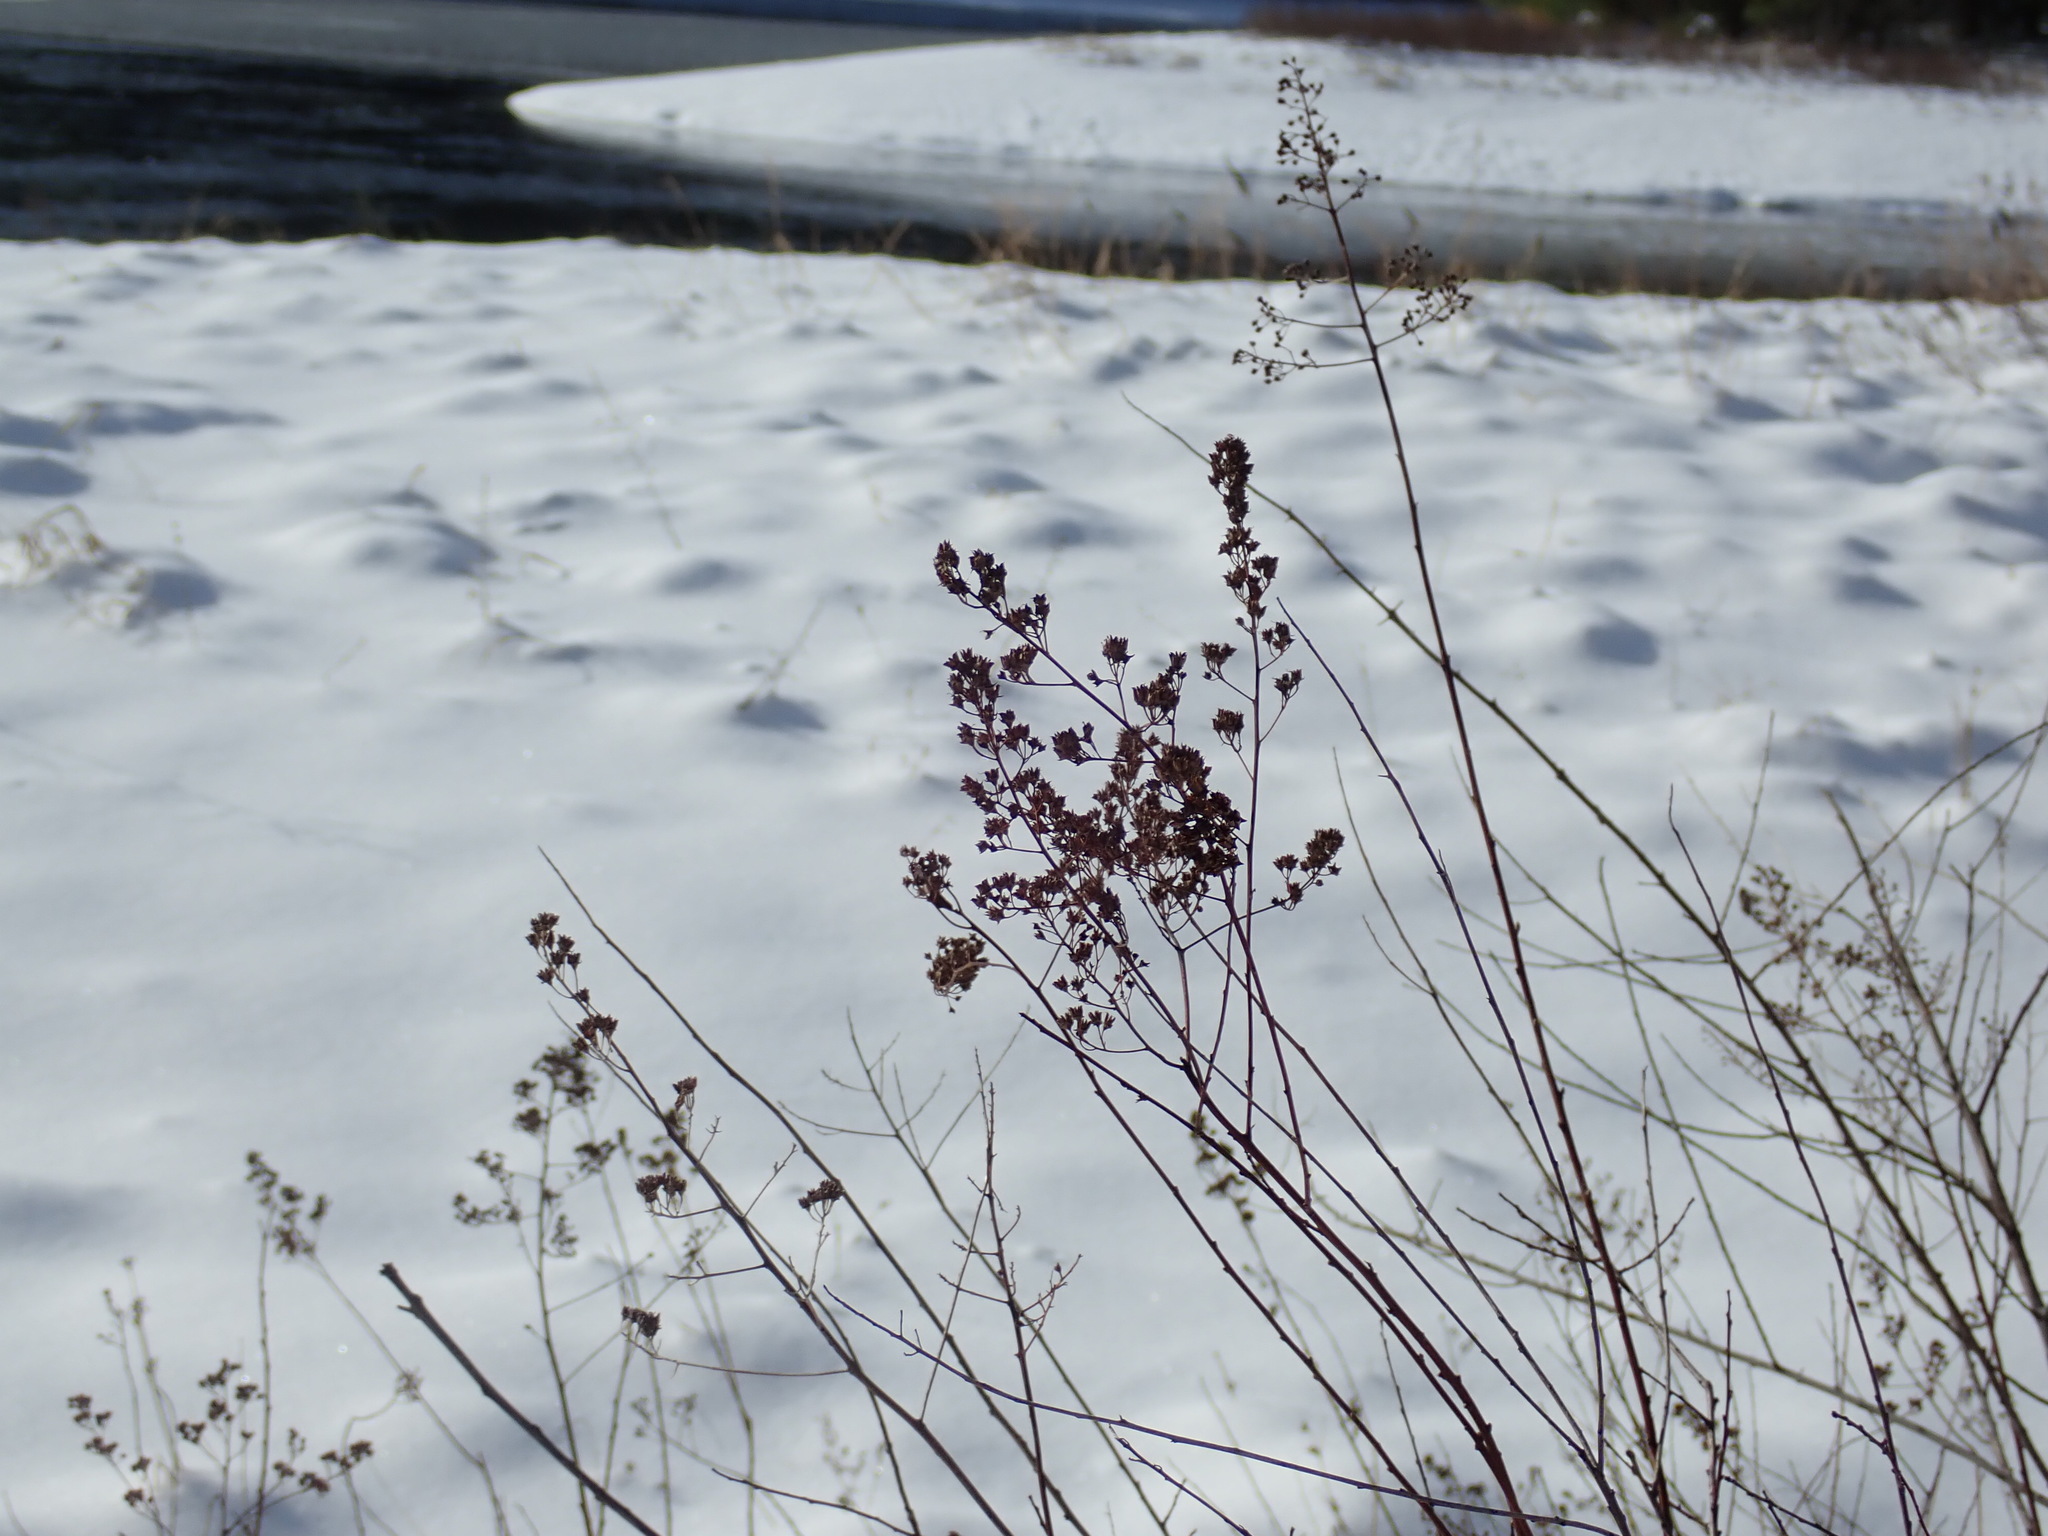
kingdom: Plantae
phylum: Tracheophyta
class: Magnoliopsida
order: Rosales
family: Rosaceae
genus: Spiraea
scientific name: Spiraea alba
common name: Pale bridewort
